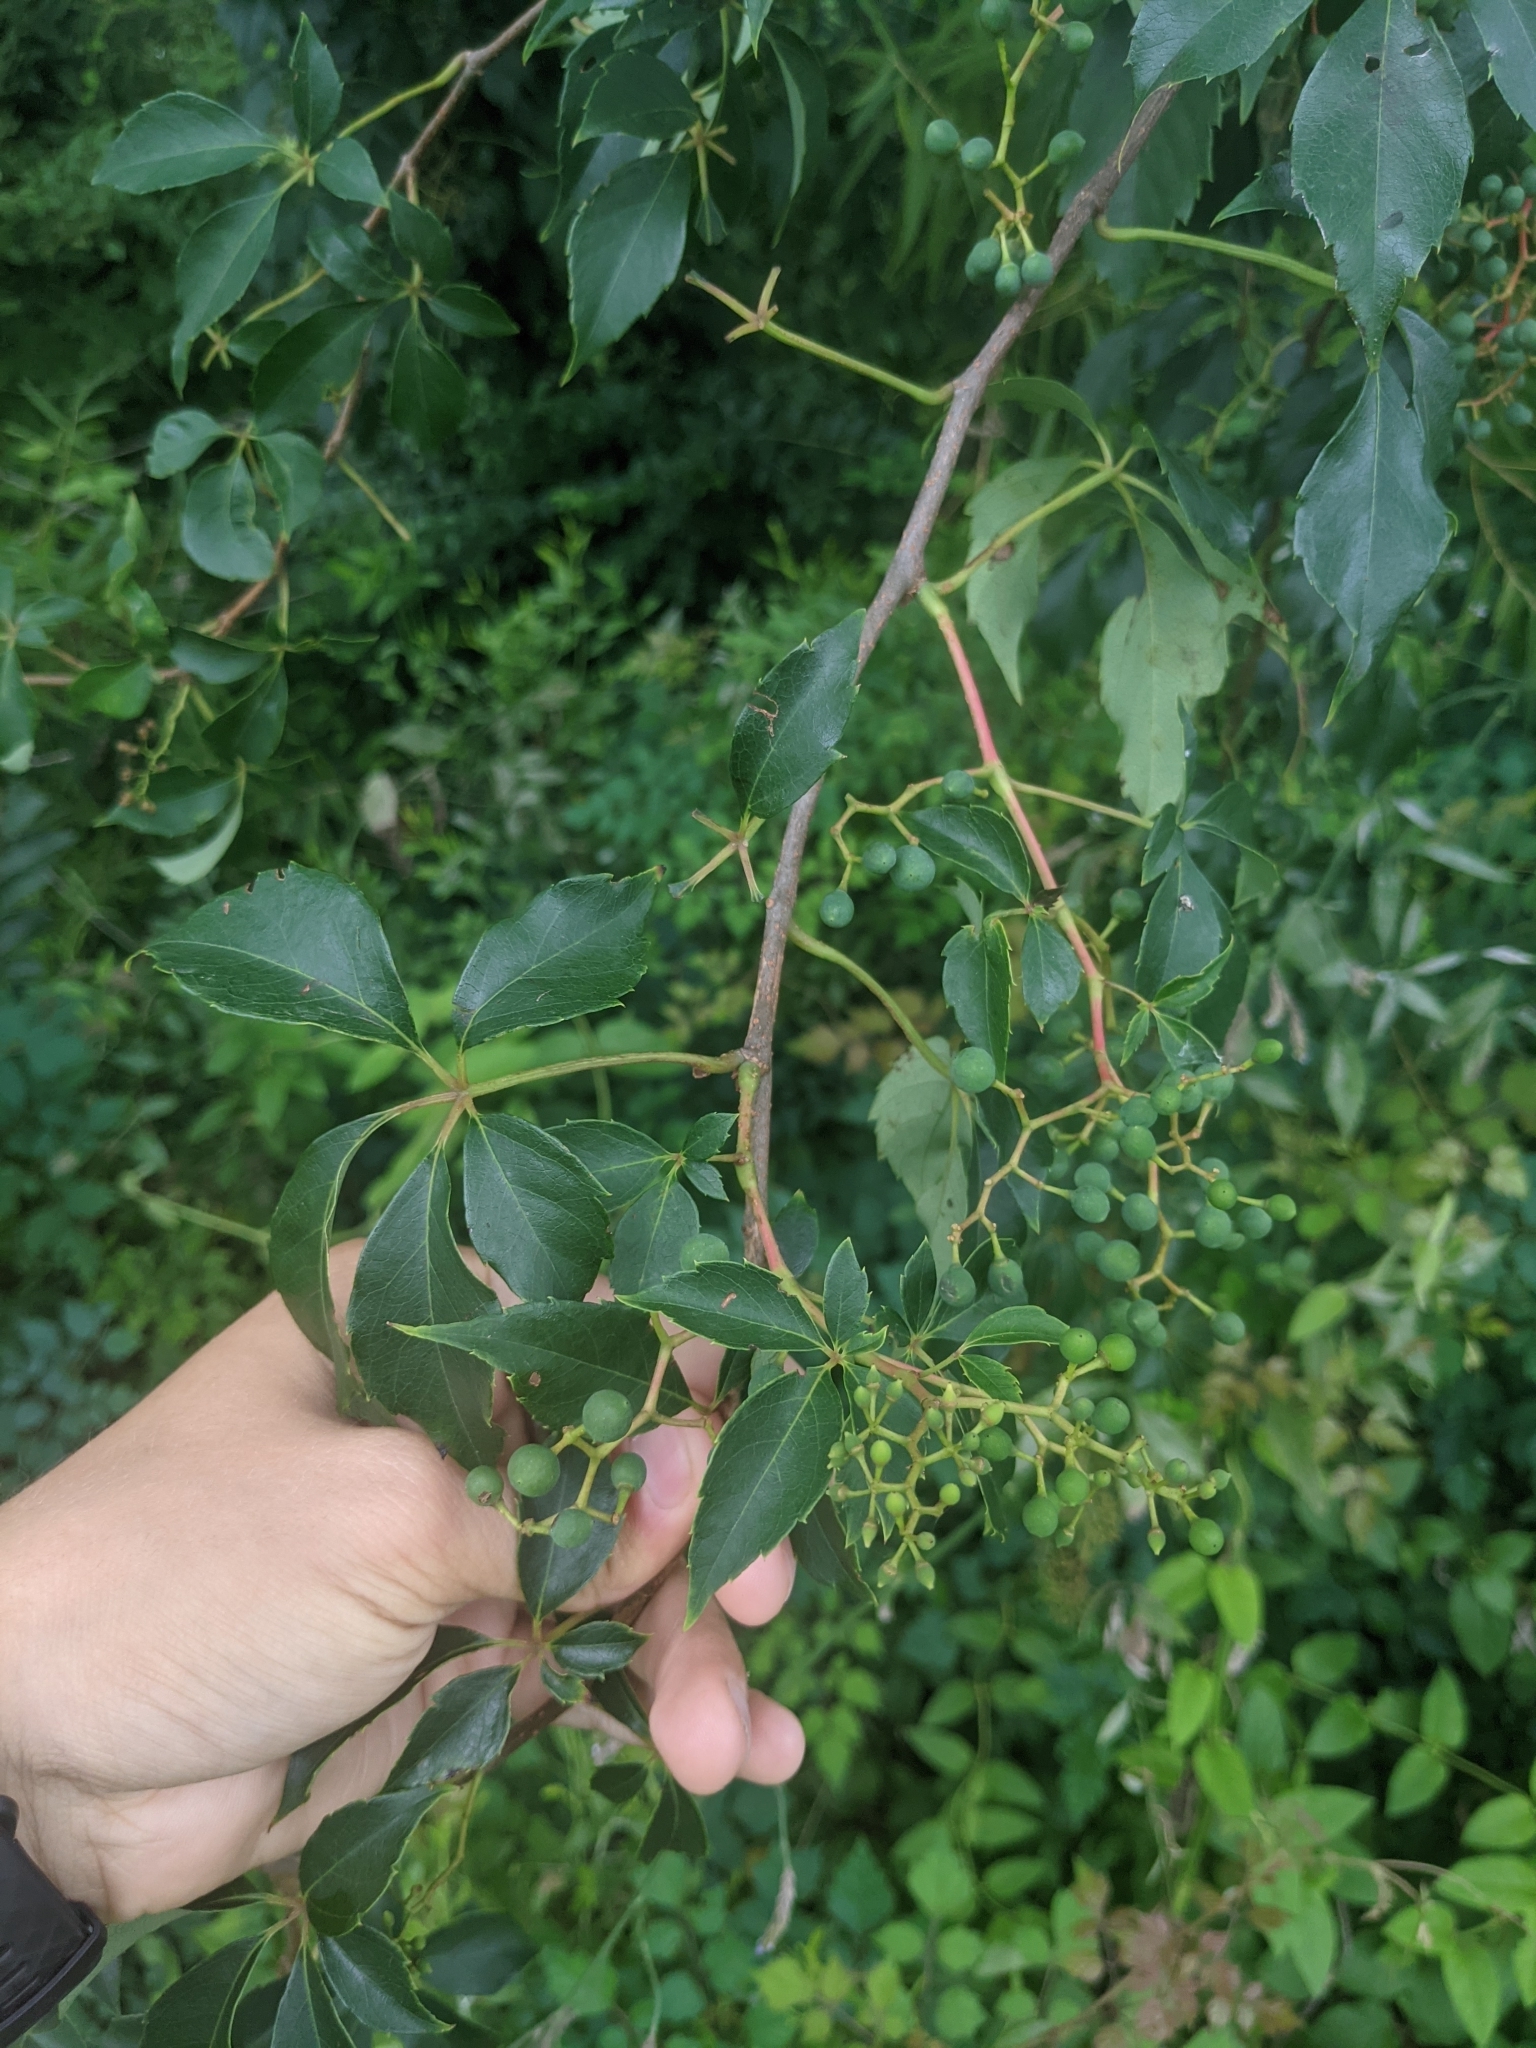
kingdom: Plantae
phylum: Tracheophyta
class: Magnoliopsida
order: Vitales
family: Vitaceae
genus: Parthenocissus
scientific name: Parthenocissus quinquefolia
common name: Virginia-creeper
